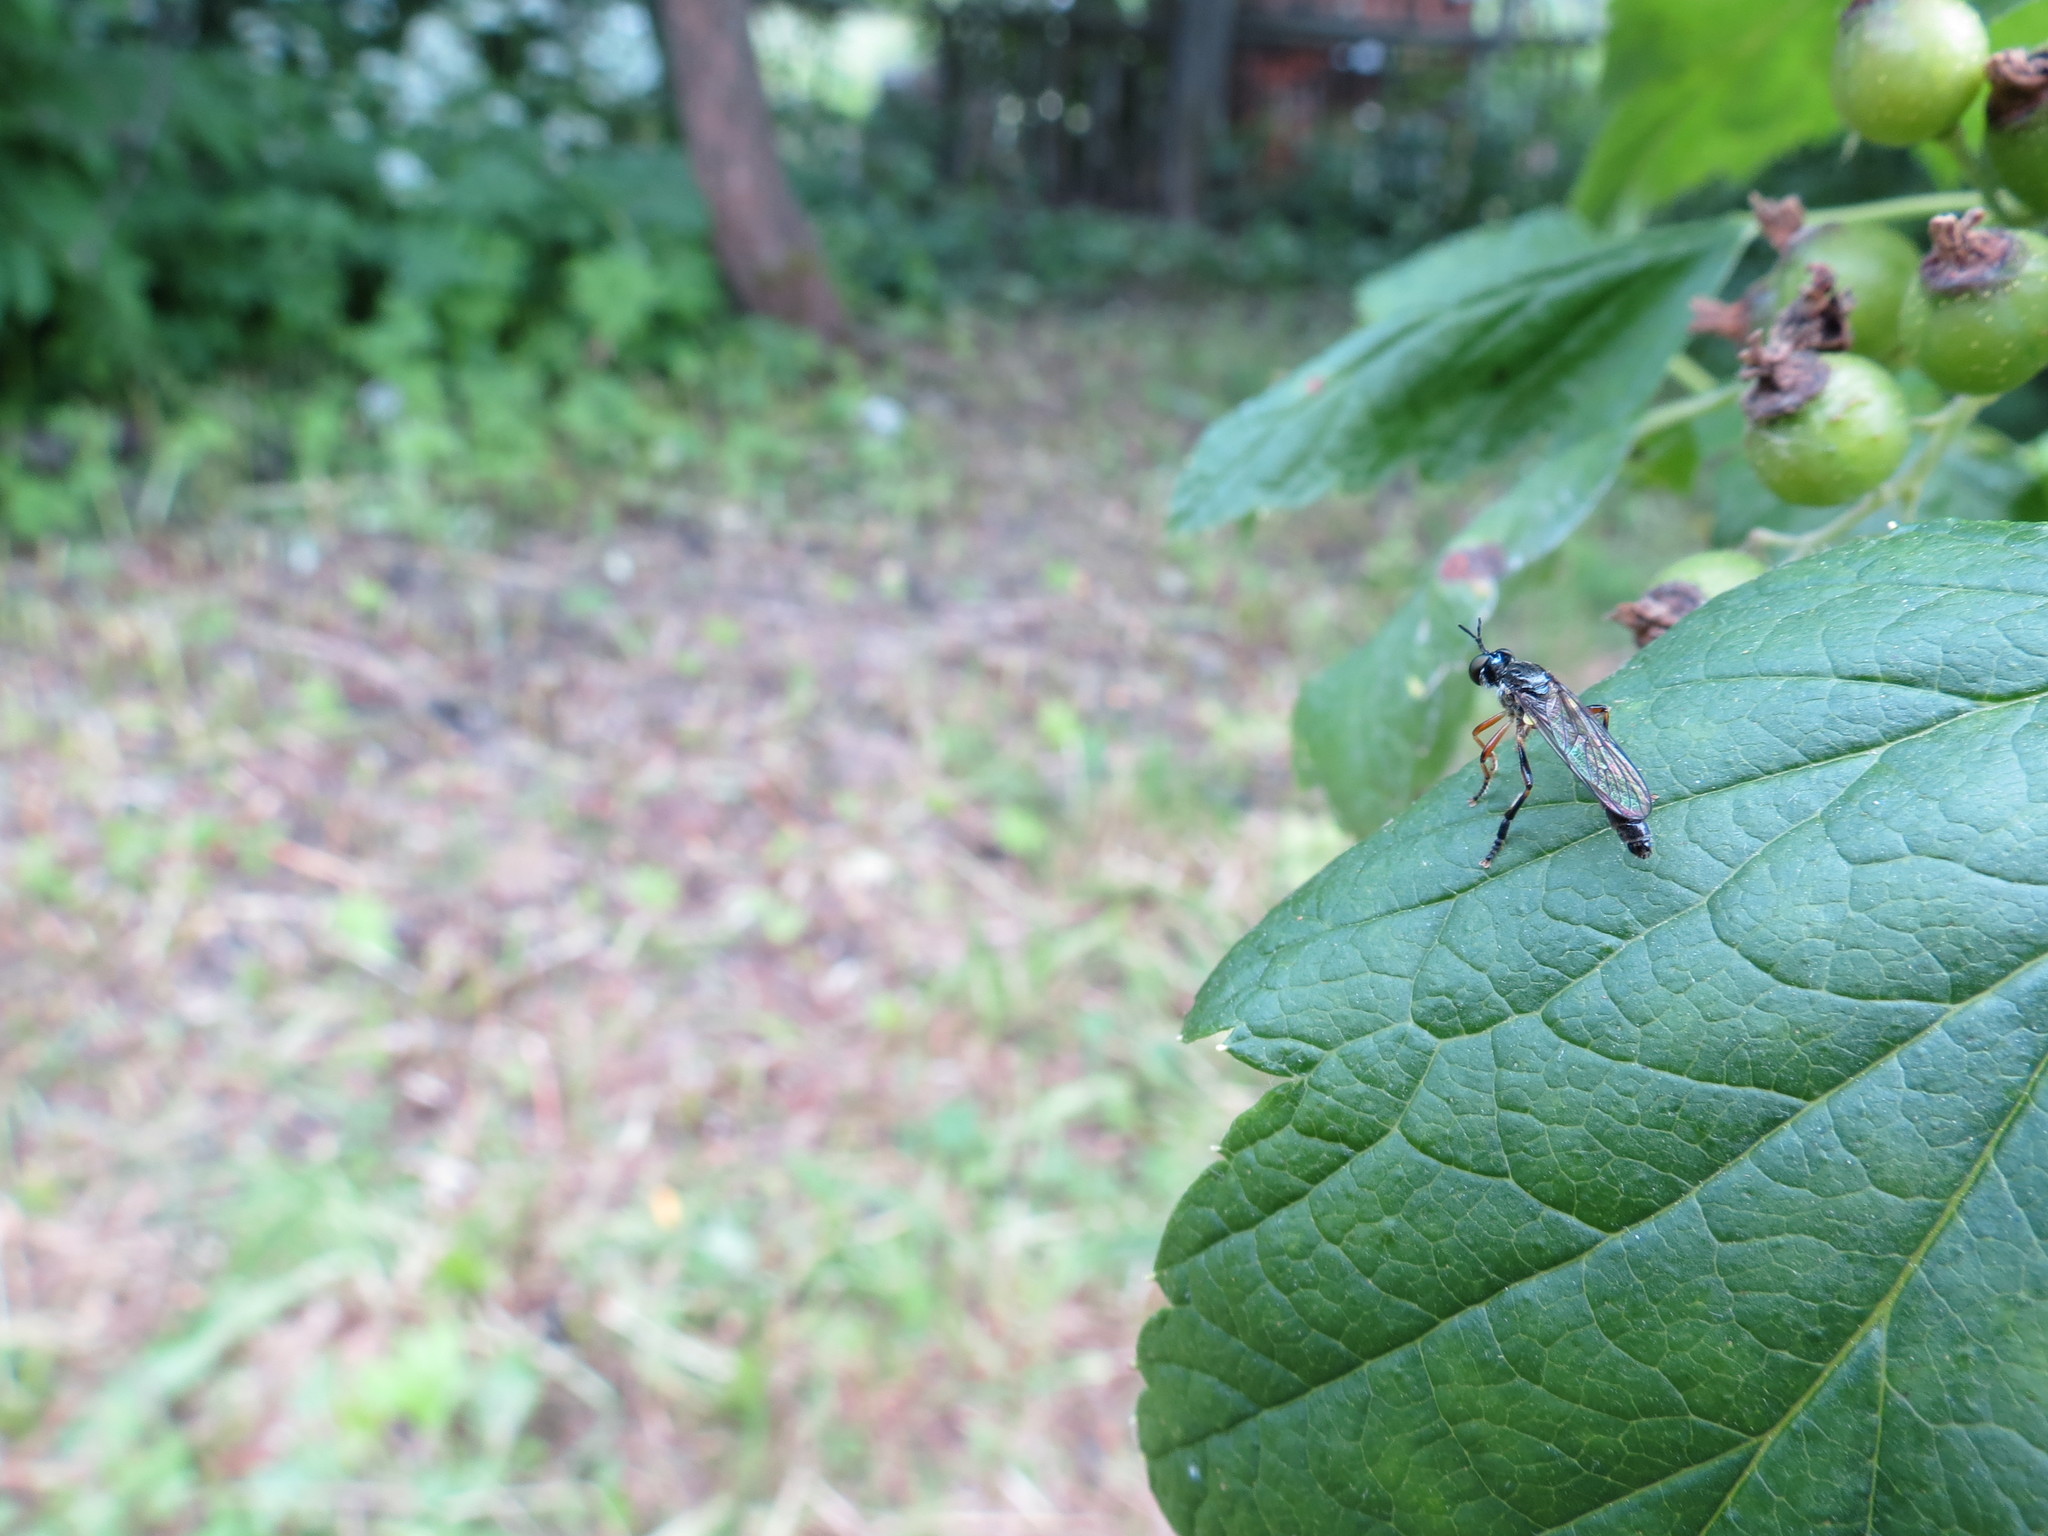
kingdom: Animalia
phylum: Arthropoda
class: Insecta
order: Diptera
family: Asilidae
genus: Dioctria
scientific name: Dioctria hyalipennis
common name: Stripe-legged robberfly
